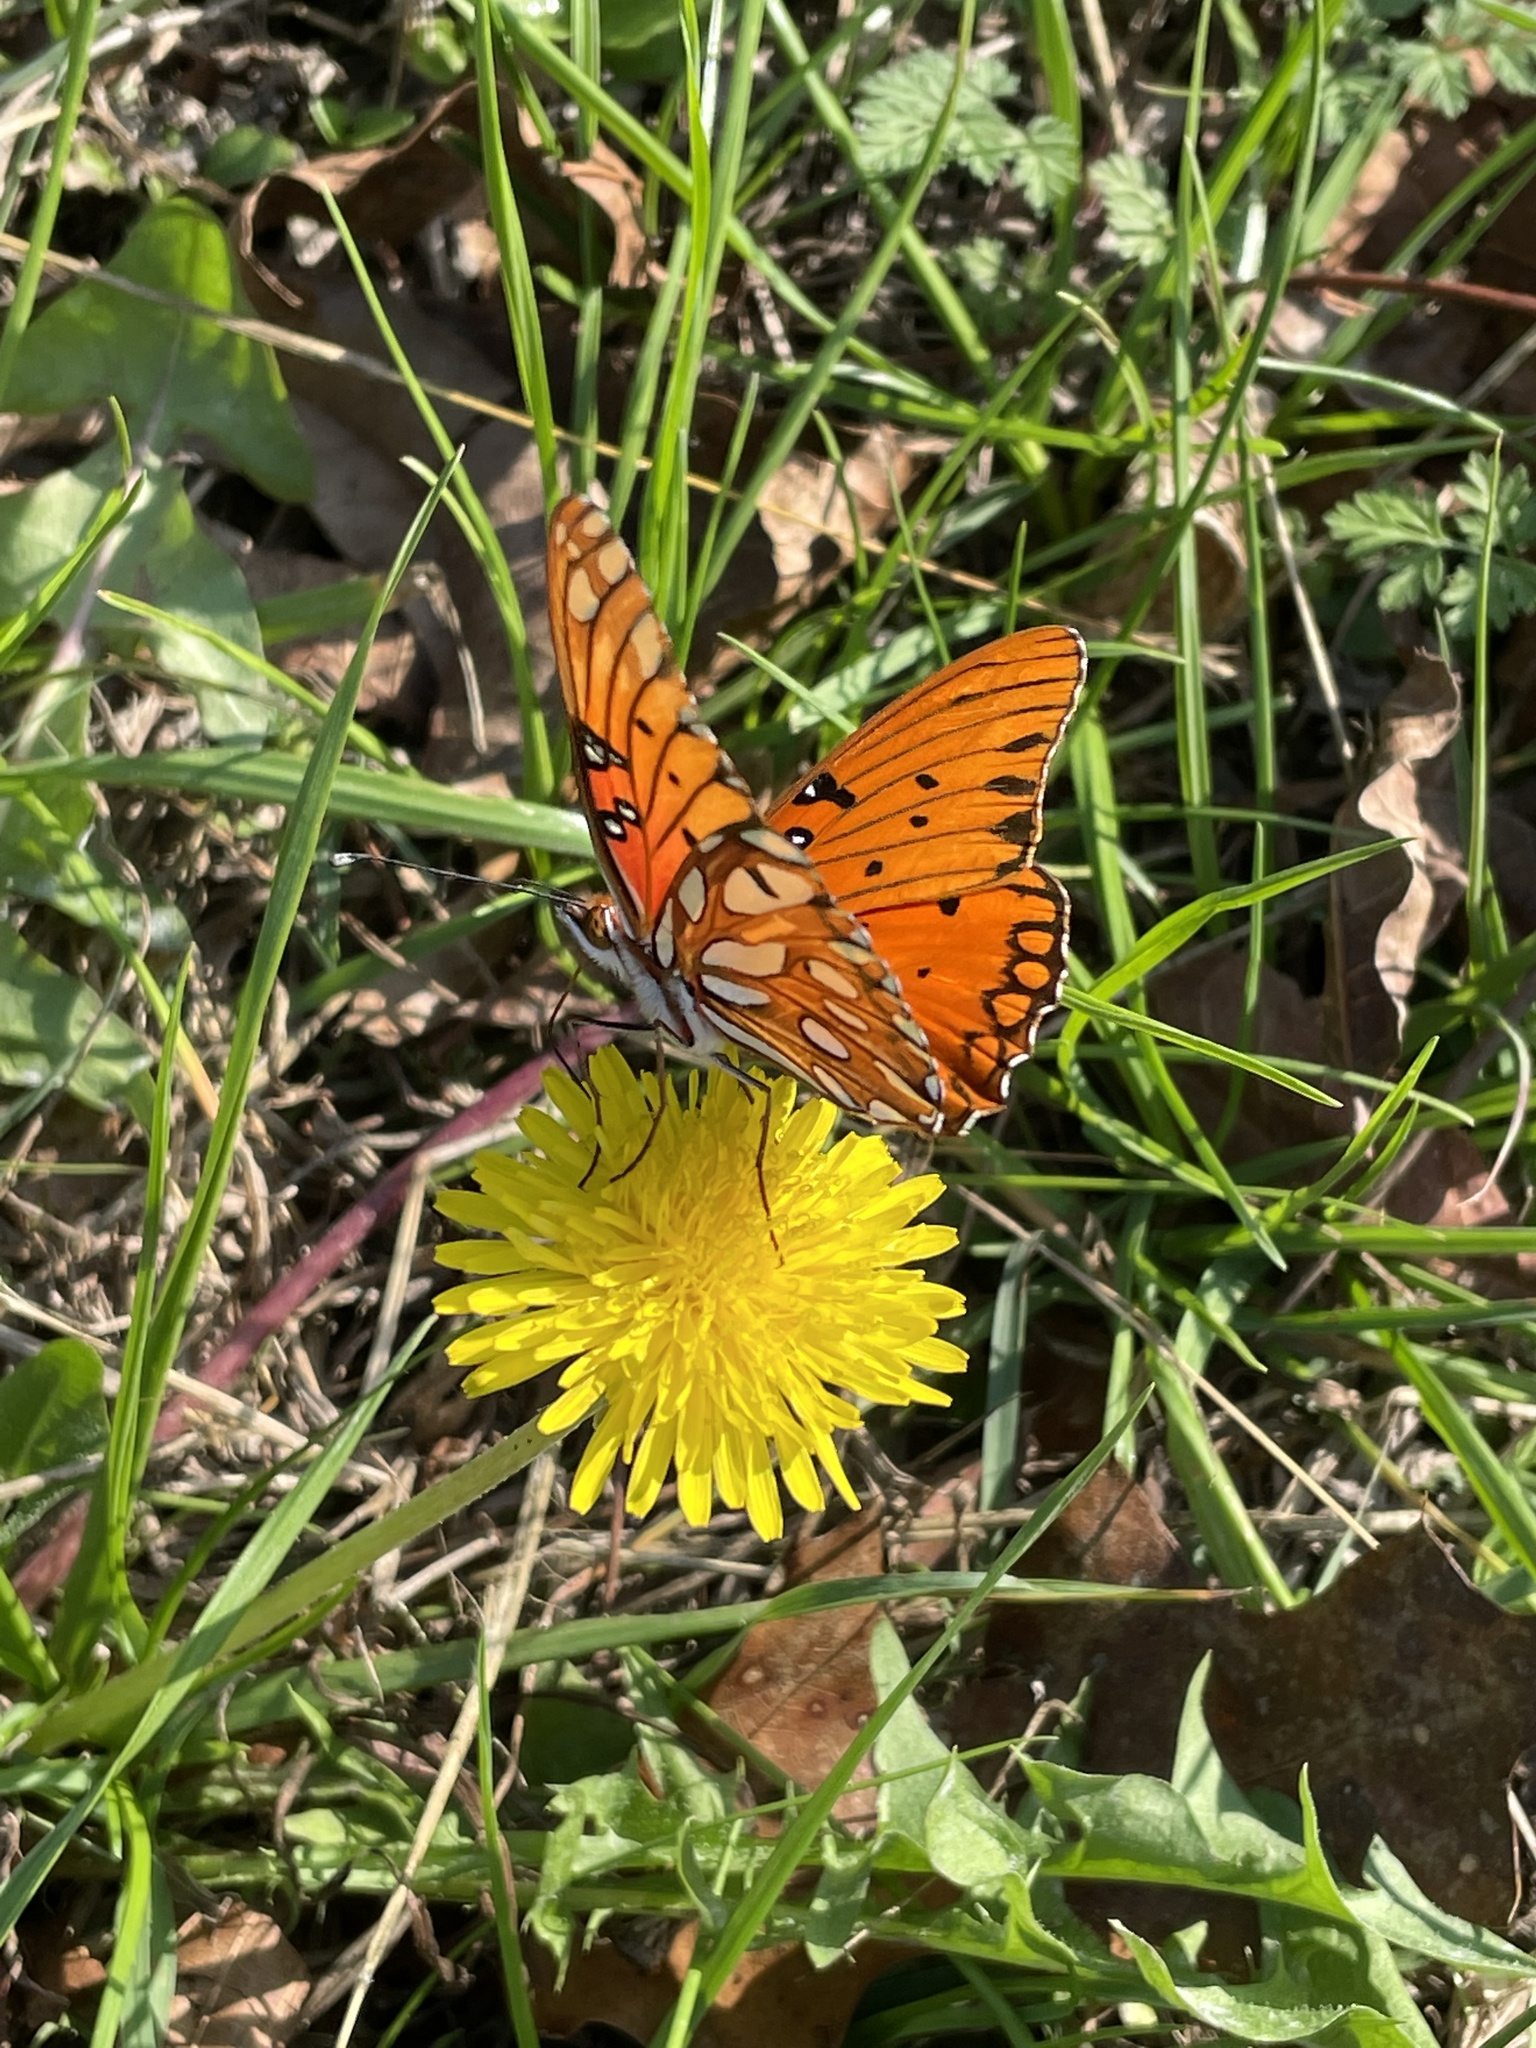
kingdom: Animalia
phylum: Arthropoda
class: Insecta
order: Lepidoptera
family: Nymphalidae
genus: Dione
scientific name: Dione vanillae
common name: Gulf fritillary
